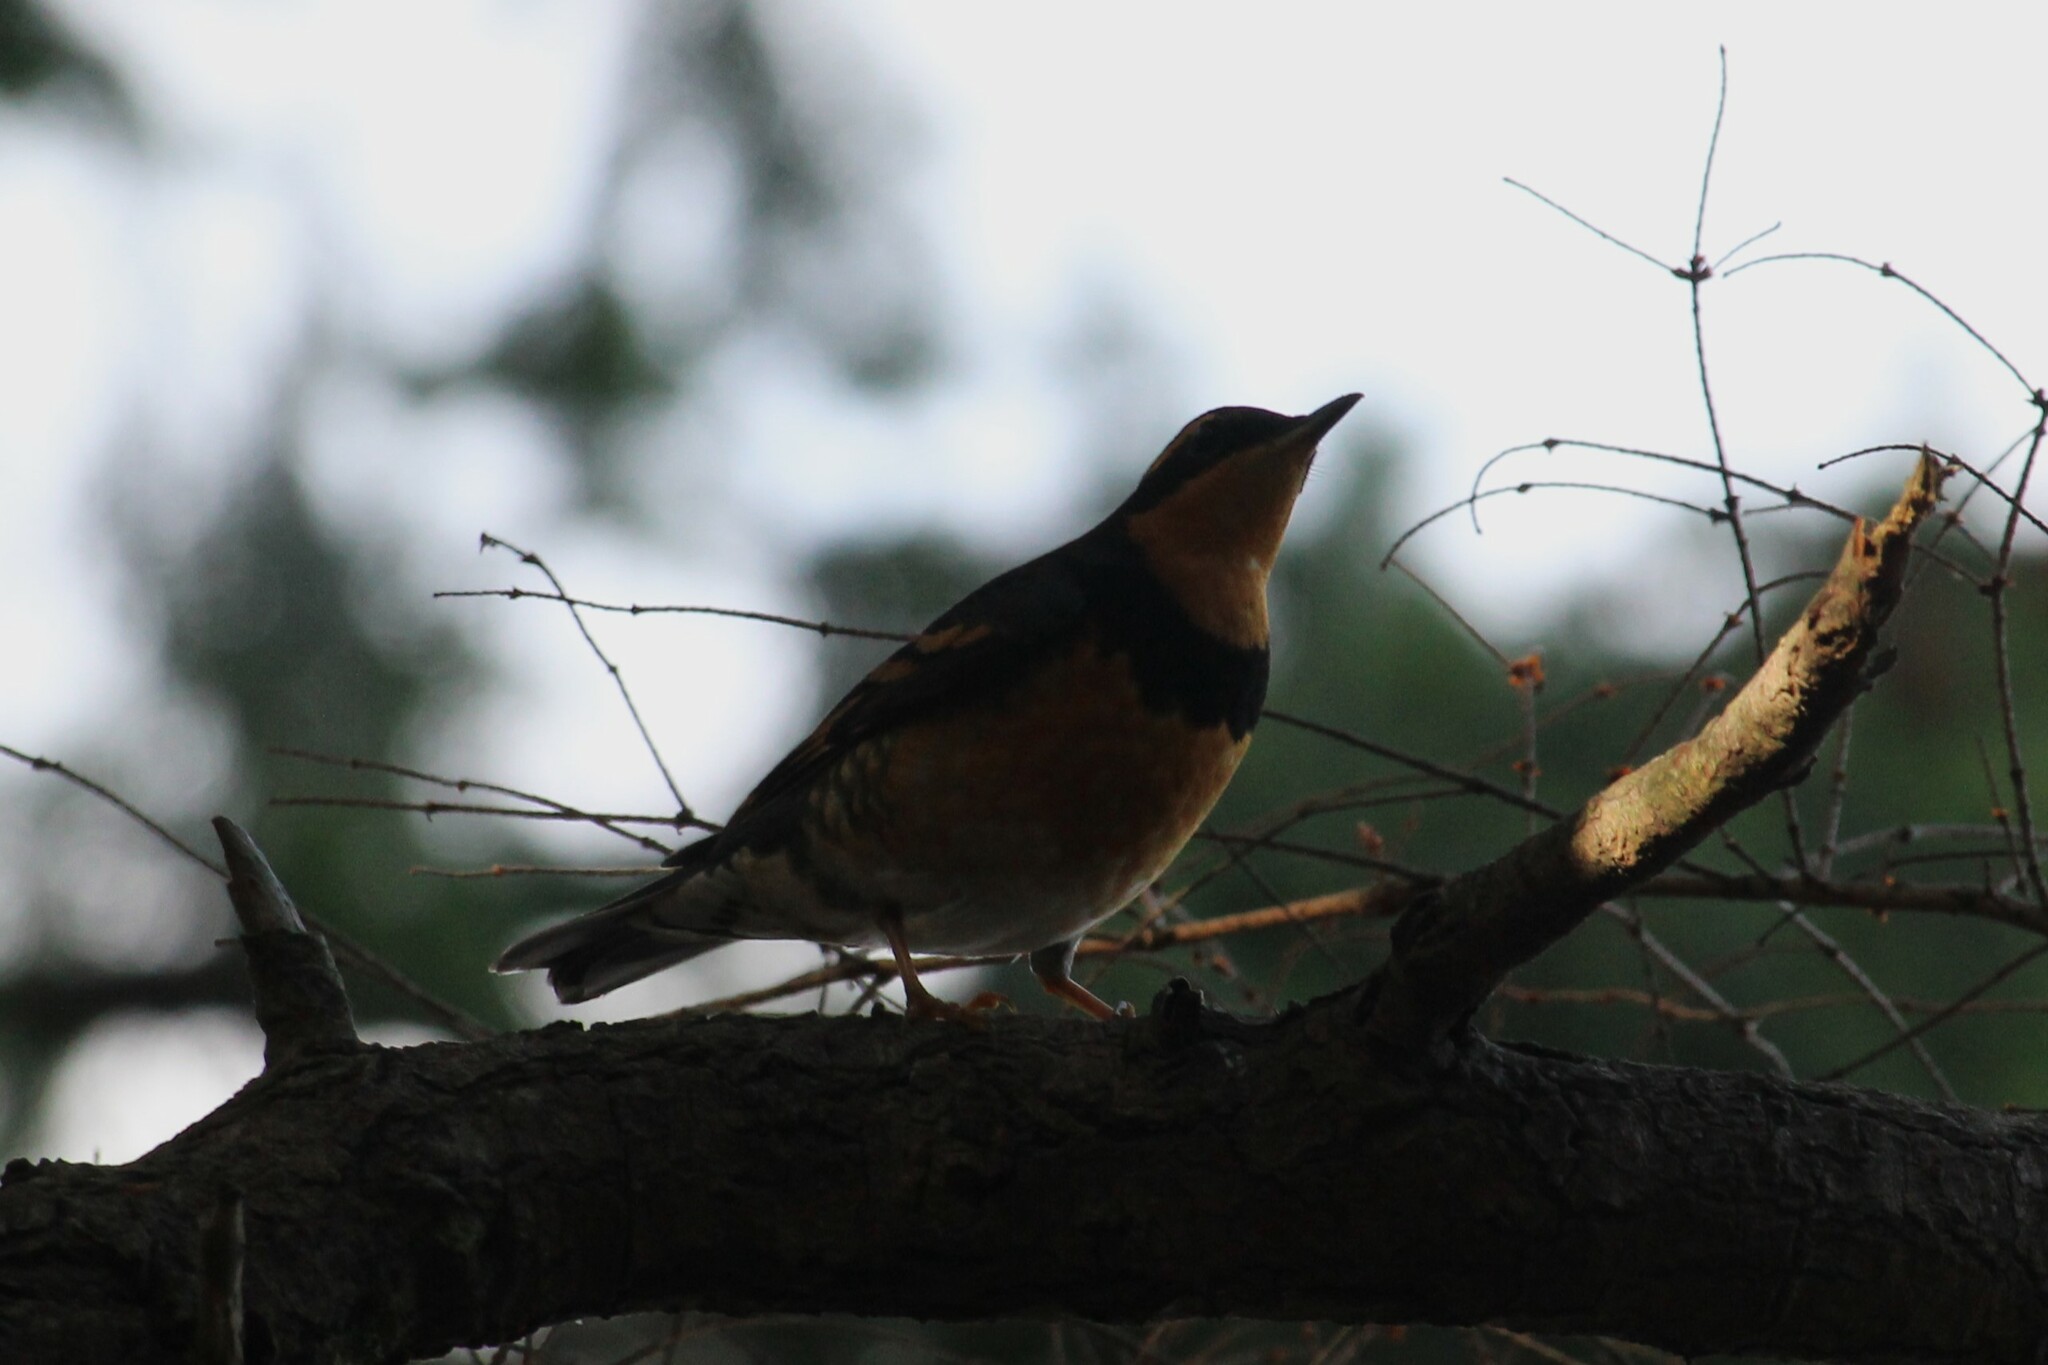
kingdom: Animalia
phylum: Chordata
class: Aves
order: Passeriformes
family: Turdidae
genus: Ixoreus
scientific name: Ixoreus naevius
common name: Varied thrush
